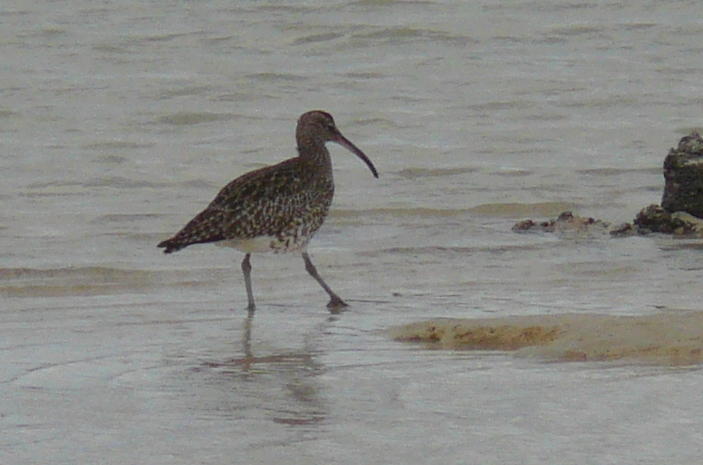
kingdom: Animalia
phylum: Chordata
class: Aves
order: Charadriiformes
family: Scolopacidae
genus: Numenius
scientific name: Numenius phaeopus
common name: Whimbrel
